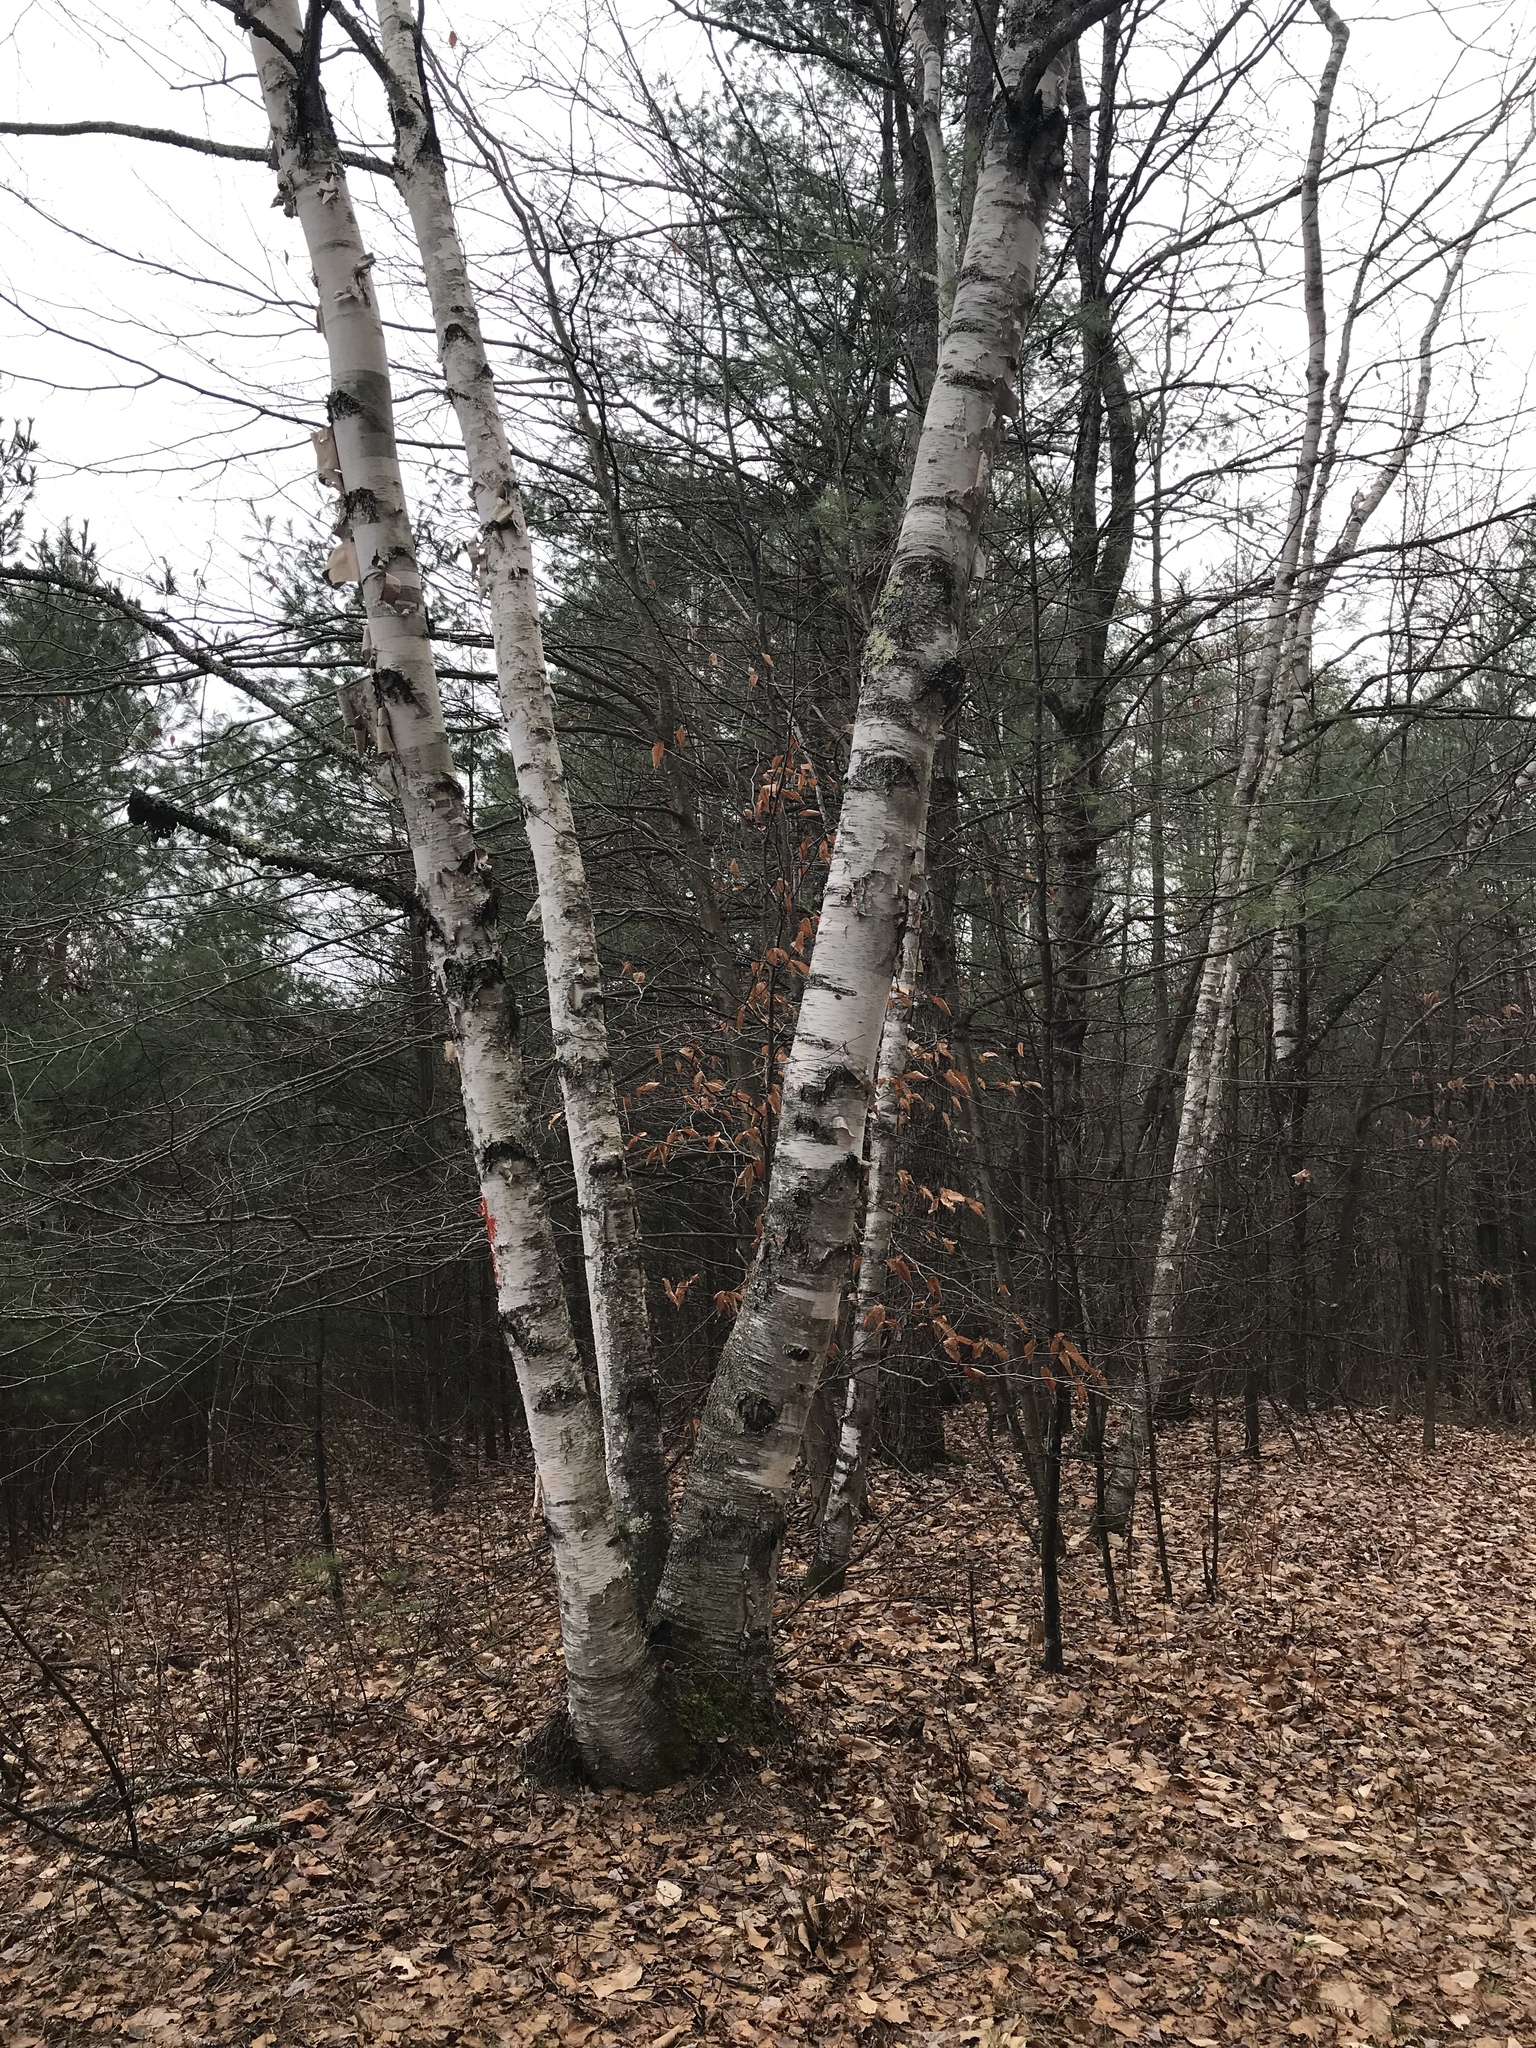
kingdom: Plantae
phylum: Tracheophyta
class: Magnoliopsida
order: Fagales
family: Betulaceae
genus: Betula
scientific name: Betula papyrifera
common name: Paper birch
